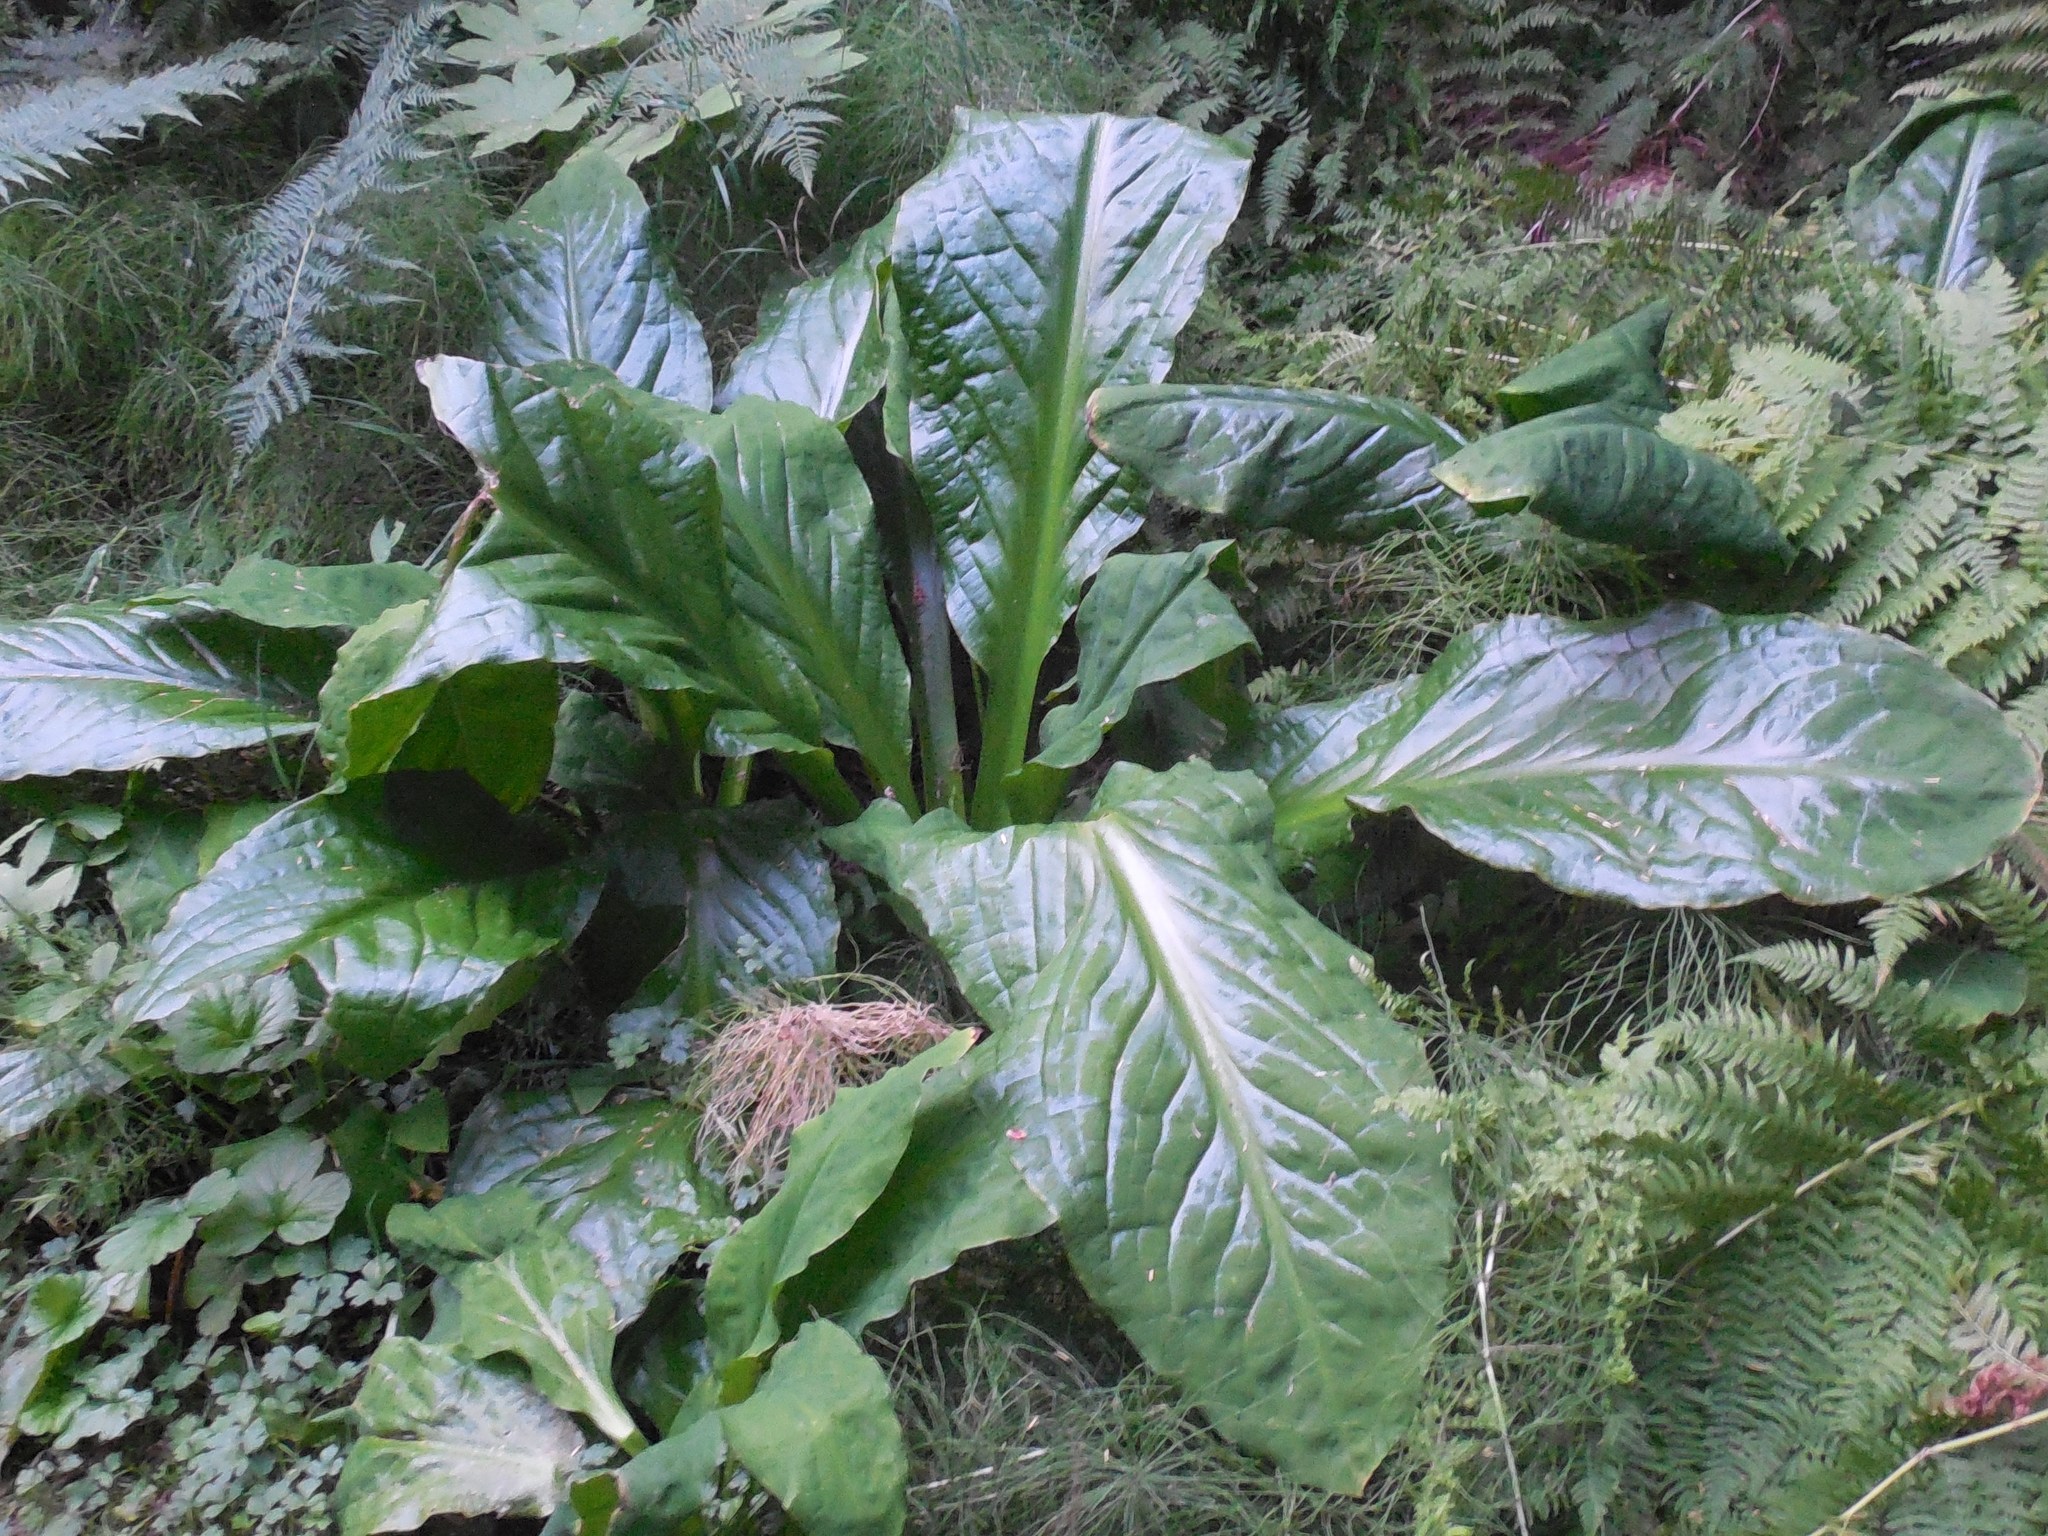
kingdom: Plantae
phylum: Tracheophyta
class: Liliopsida
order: Alismatales
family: Araceae
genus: Lysichiton
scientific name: Lysichiton americanus
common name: American skunk cabbage
